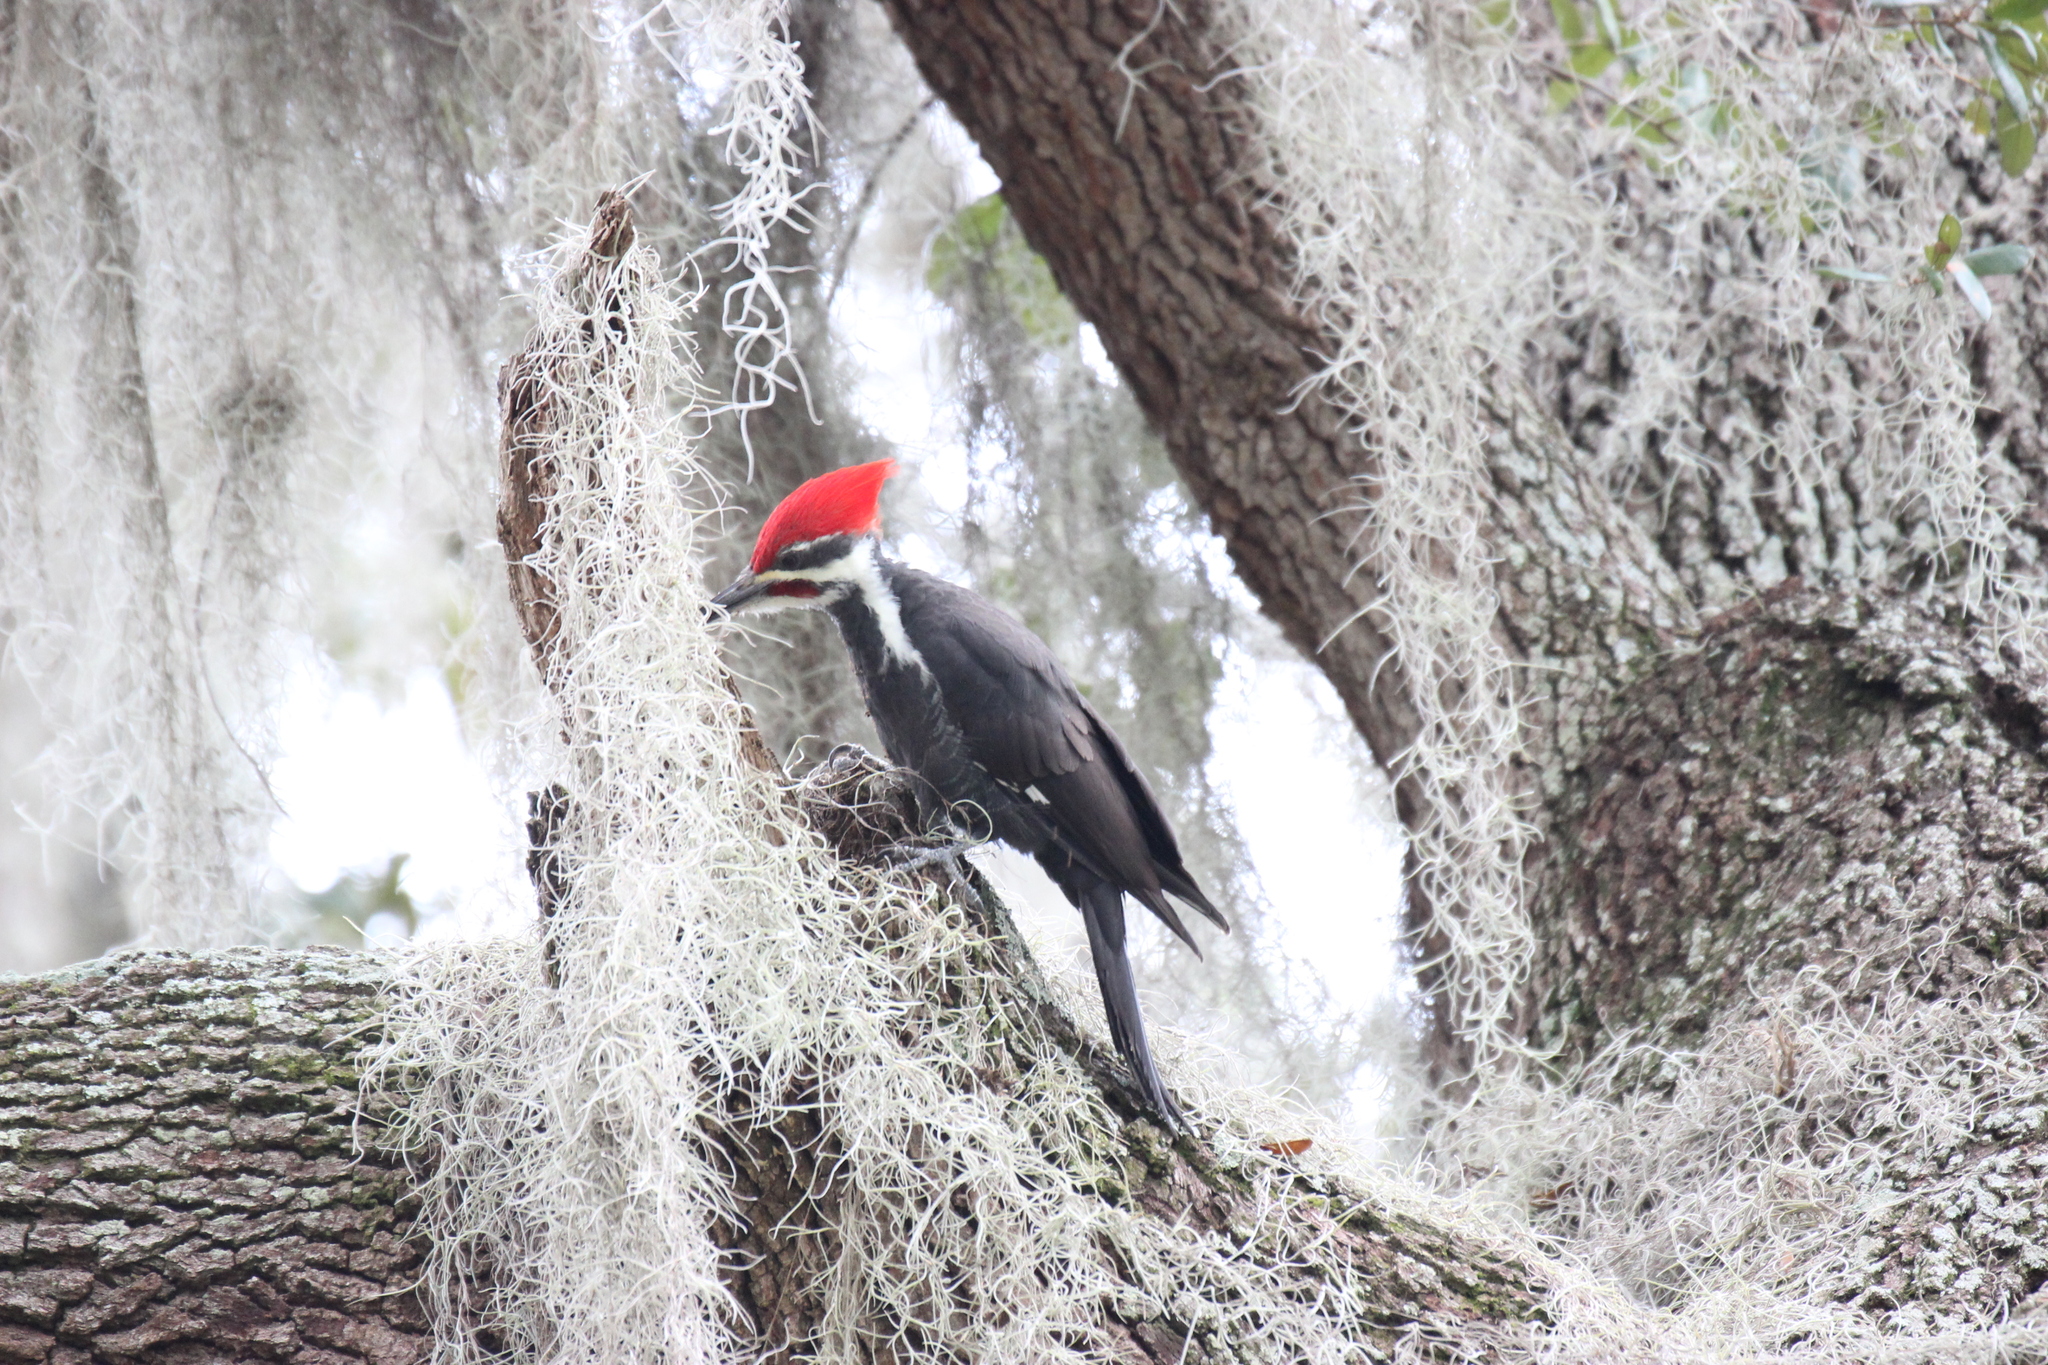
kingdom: Animalia
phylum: Chordata
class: Aves
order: Piciformes
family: Picidae
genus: Dryocopus
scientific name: Dryocopus pileatus
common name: Pileated woodpecker
